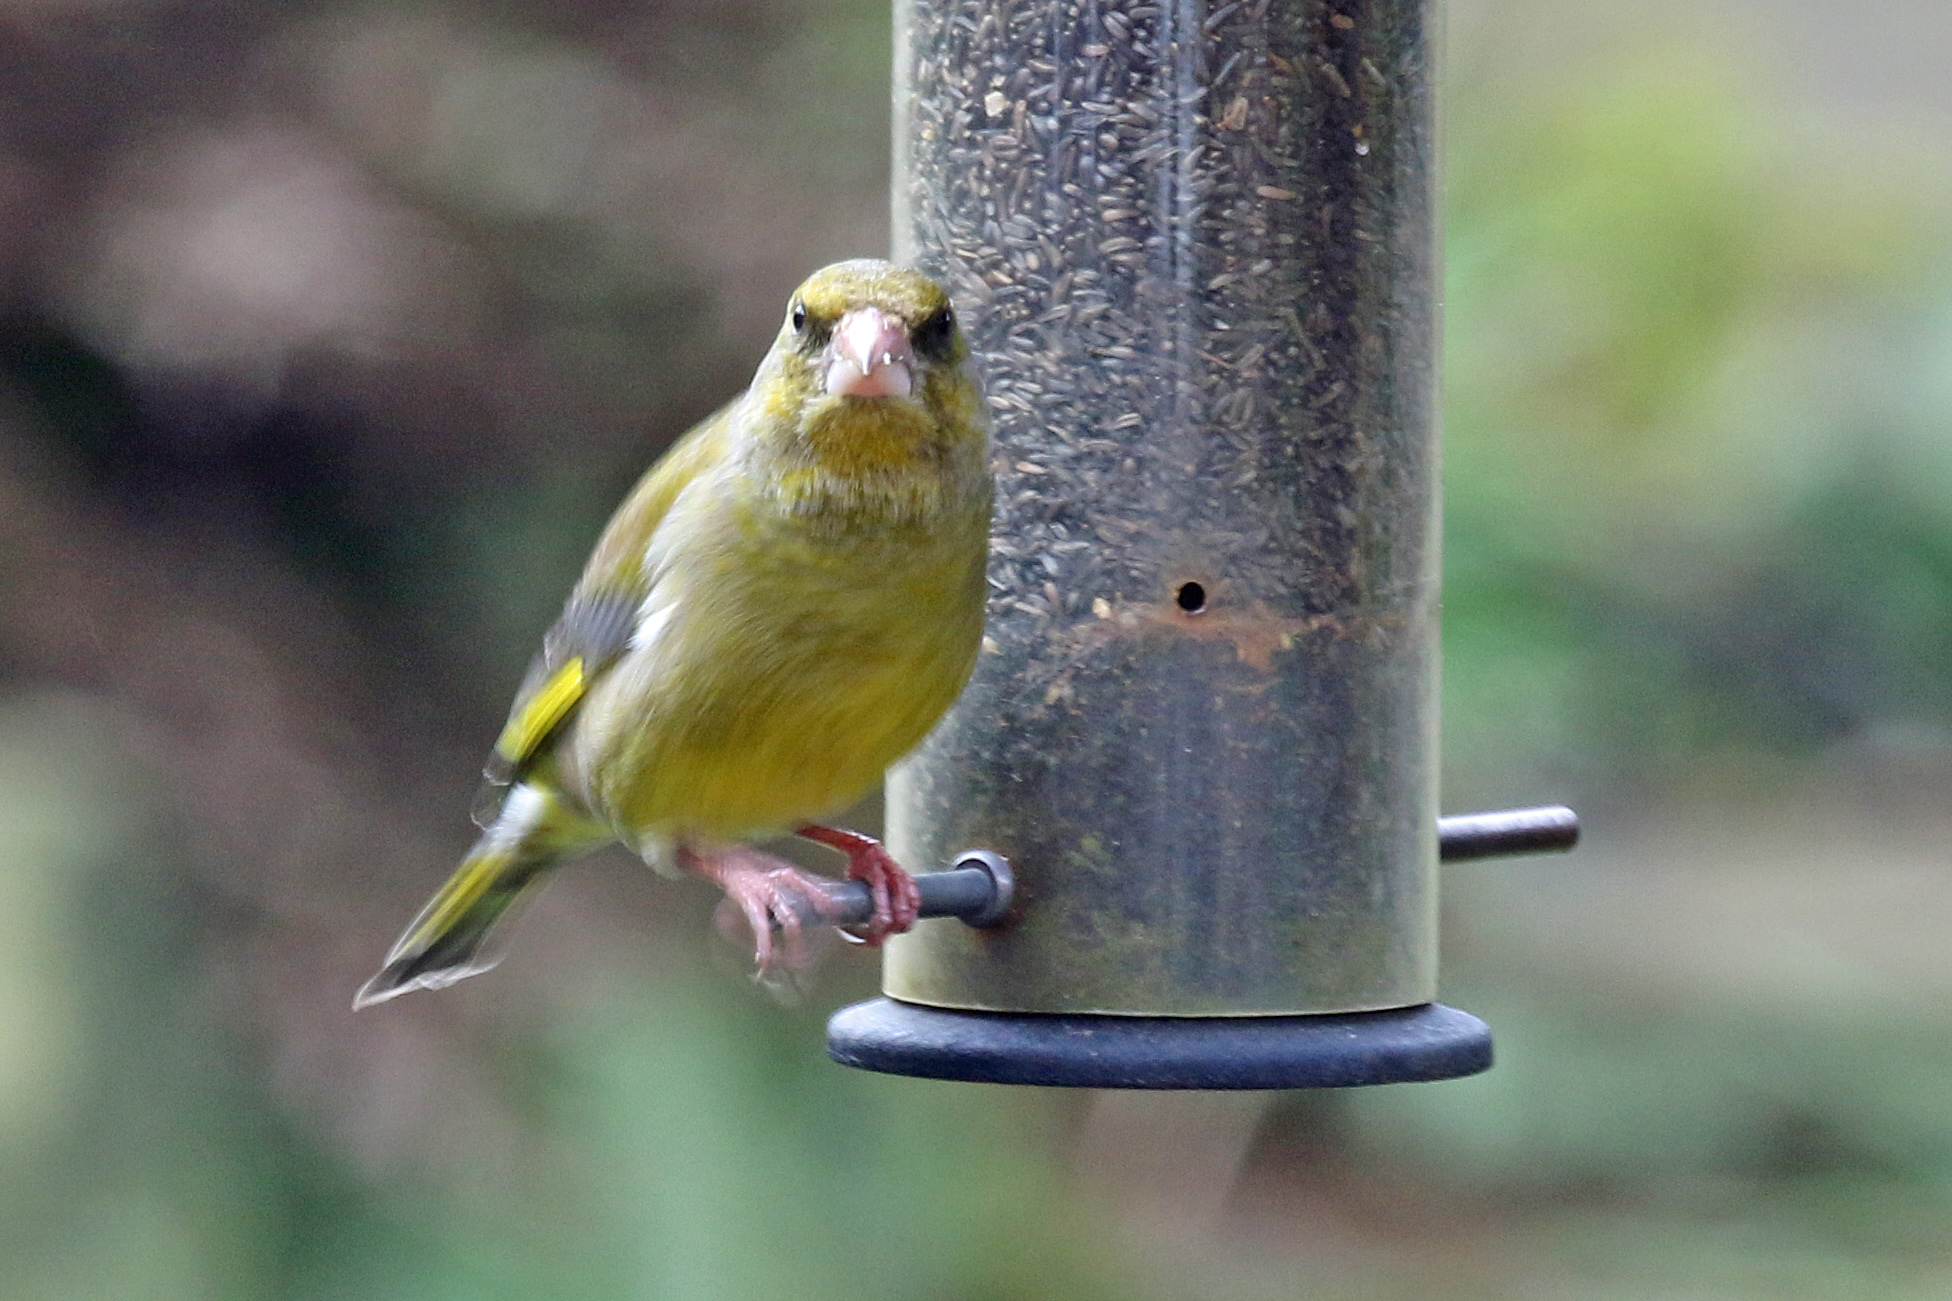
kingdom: Plantae
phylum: Tracheophyta
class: Liliopsida
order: Poales
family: Poaceae
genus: Chloris
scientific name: Chloris chloris
